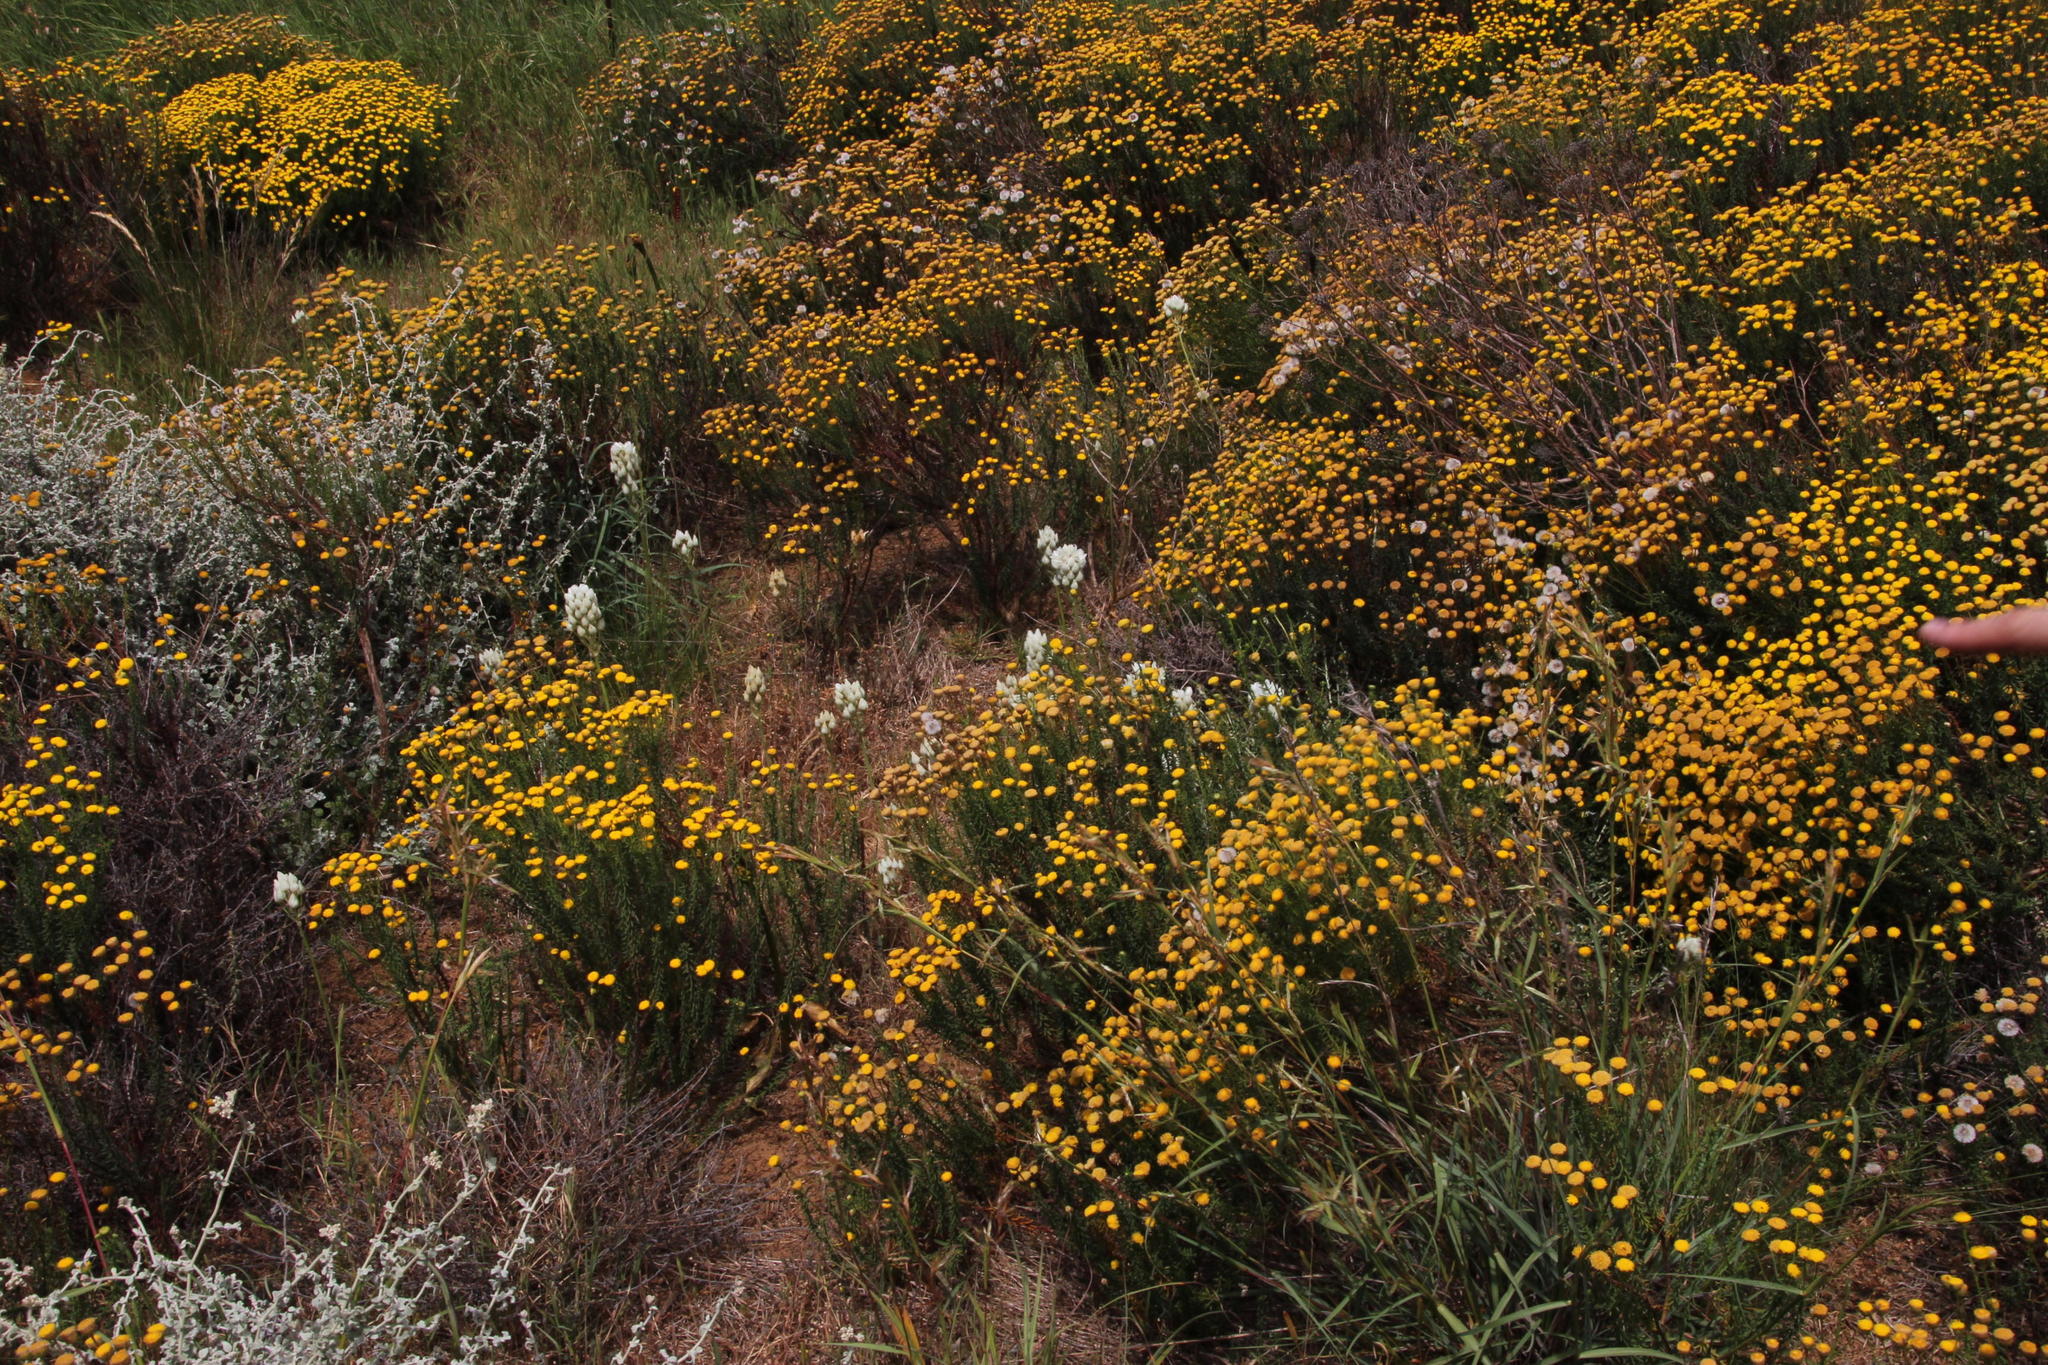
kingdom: Plantae
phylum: Tracheophyta
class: Liliopsida
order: Asparagales
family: Asparagaceae
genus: Ornithogalum
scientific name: Ornithogalum thyrsoides
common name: Chincherinchee
